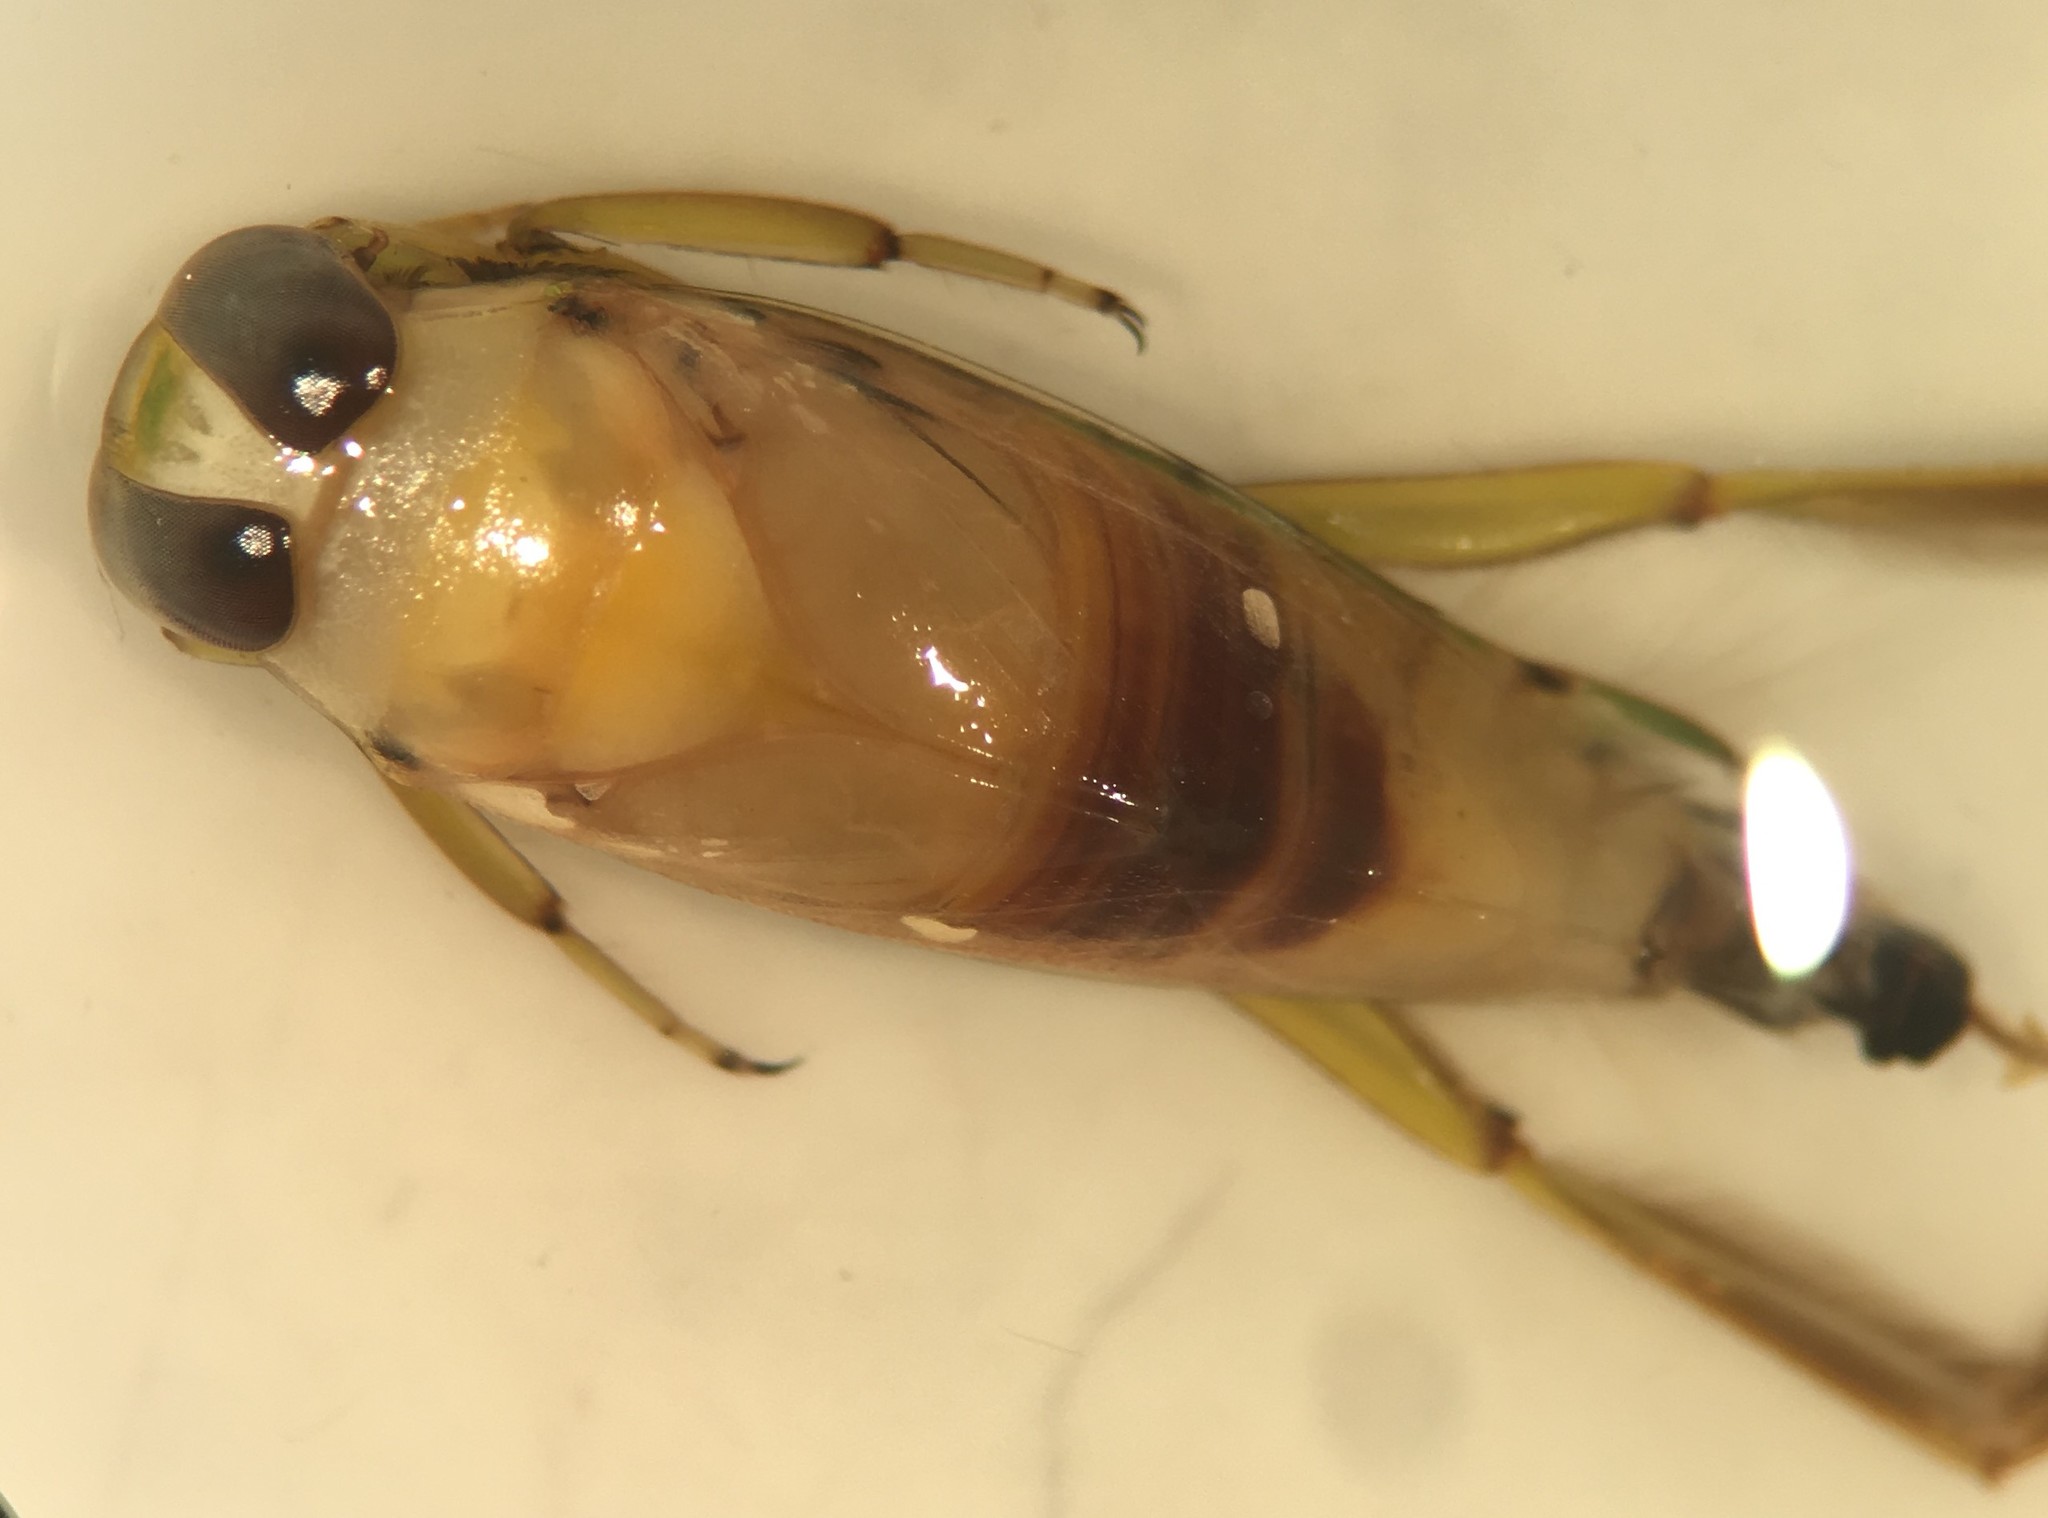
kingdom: Animalia
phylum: Arthropoda
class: Insecta
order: Hemiptera
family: Notonectidae
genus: Notonecta
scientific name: Notonecta indica
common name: Backswimmer
